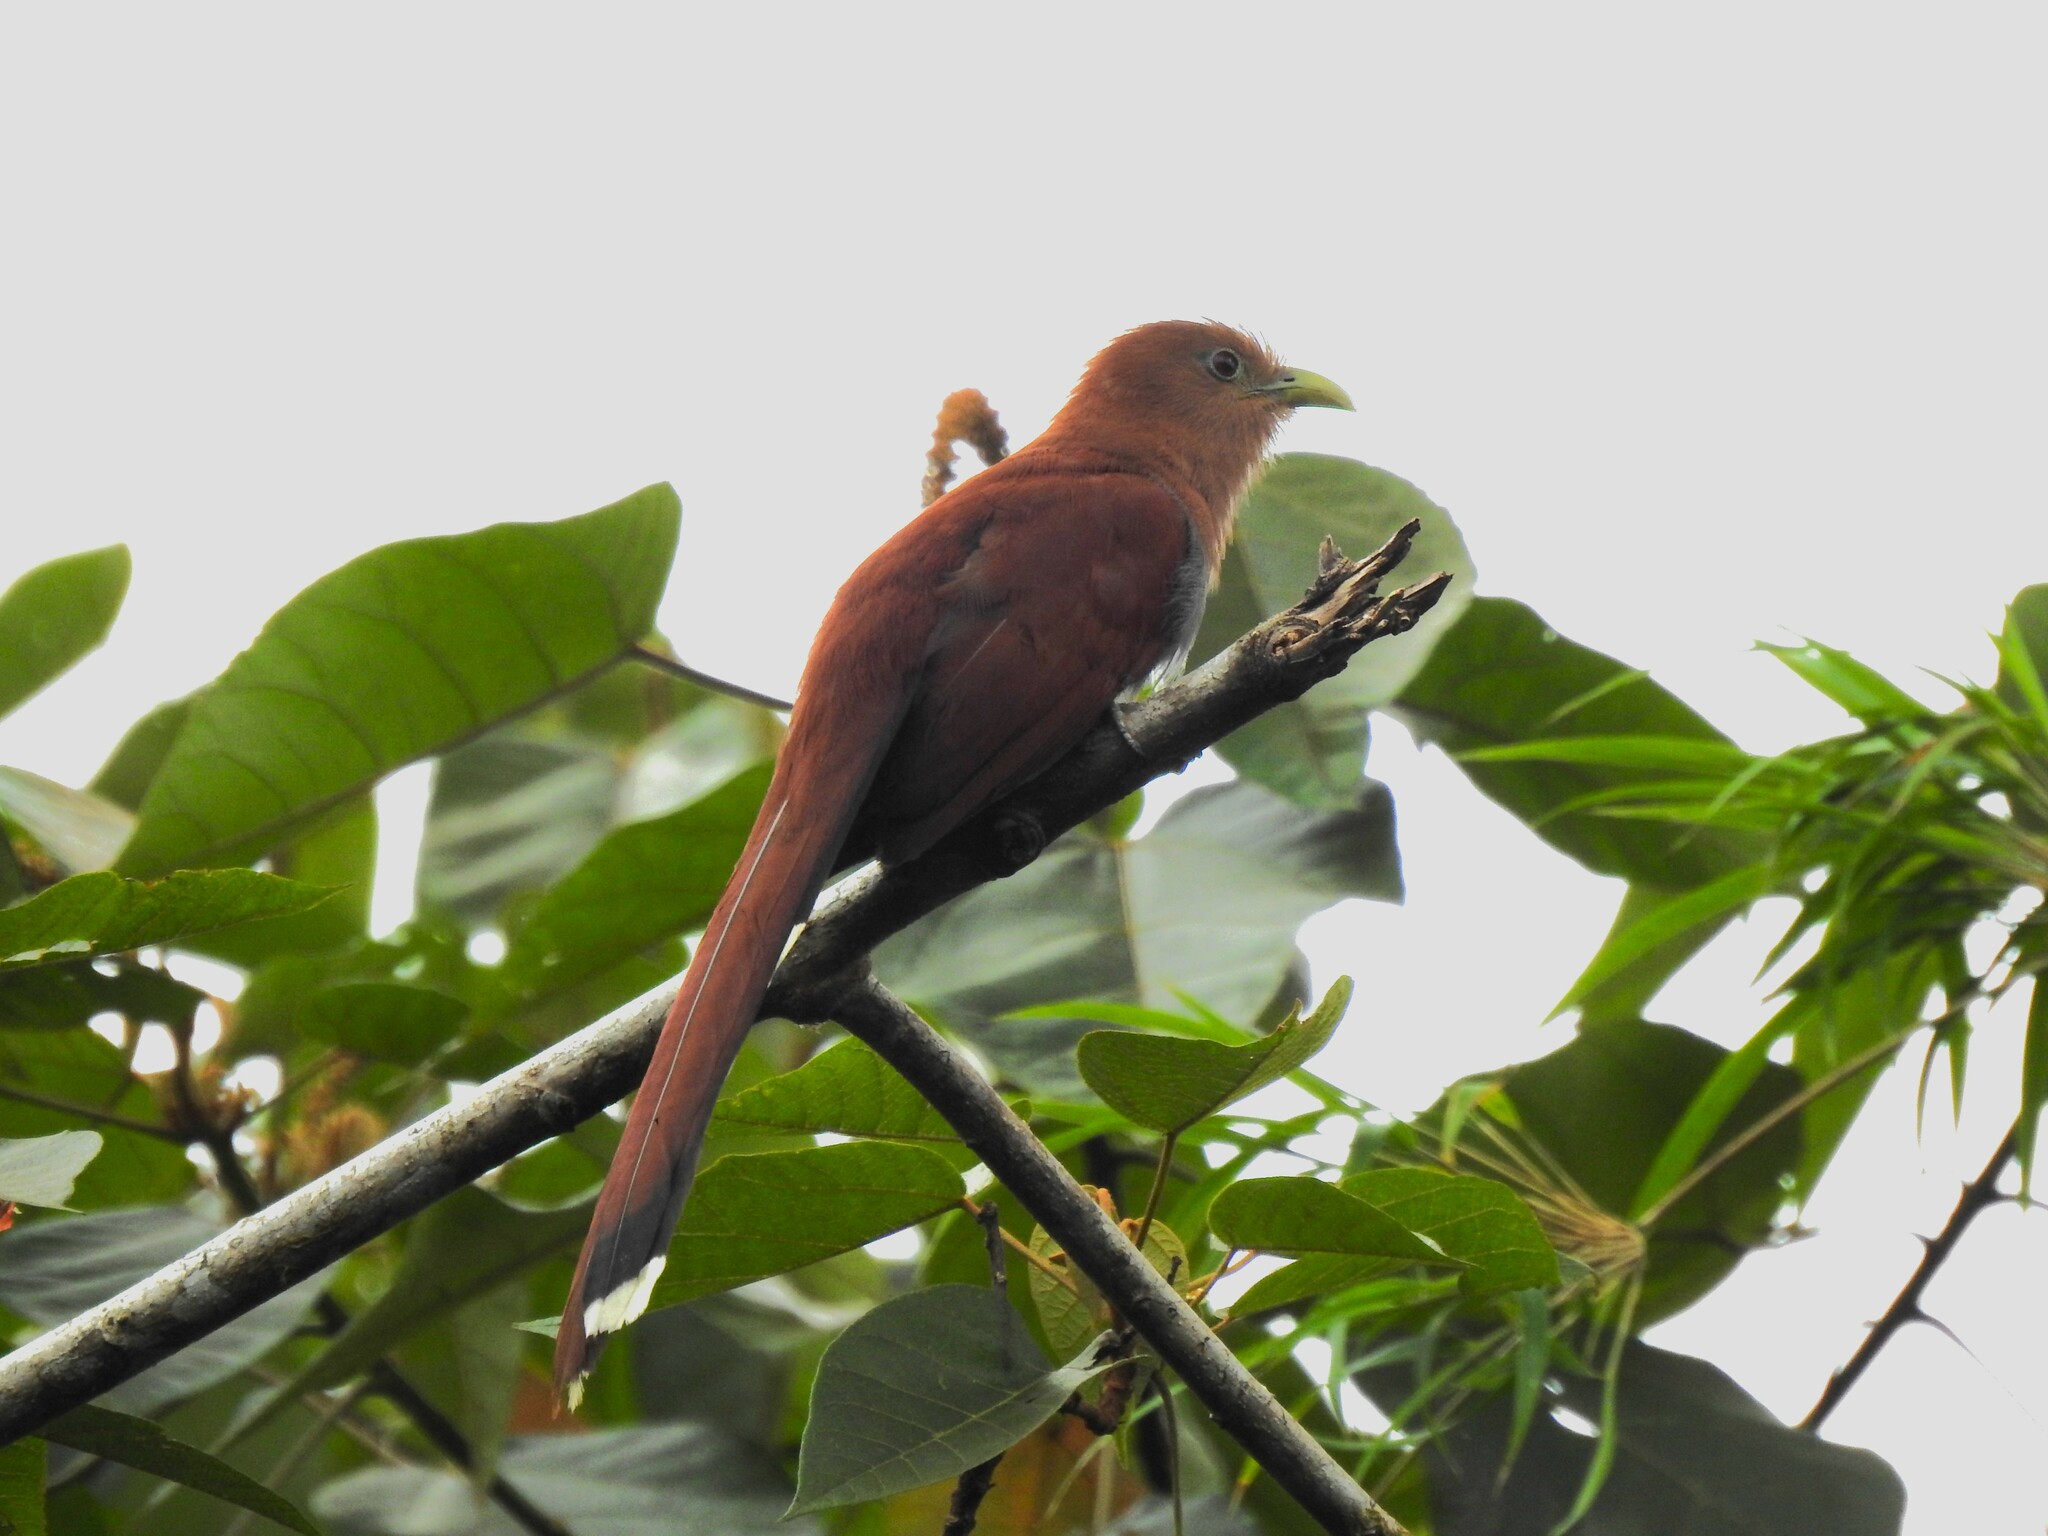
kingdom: Animalia
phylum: Chordata
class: Aves
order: Cuculiformes
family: Cuculidae
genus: Piaya
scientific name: Piaya cayana
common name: Squirrel cuckoo
